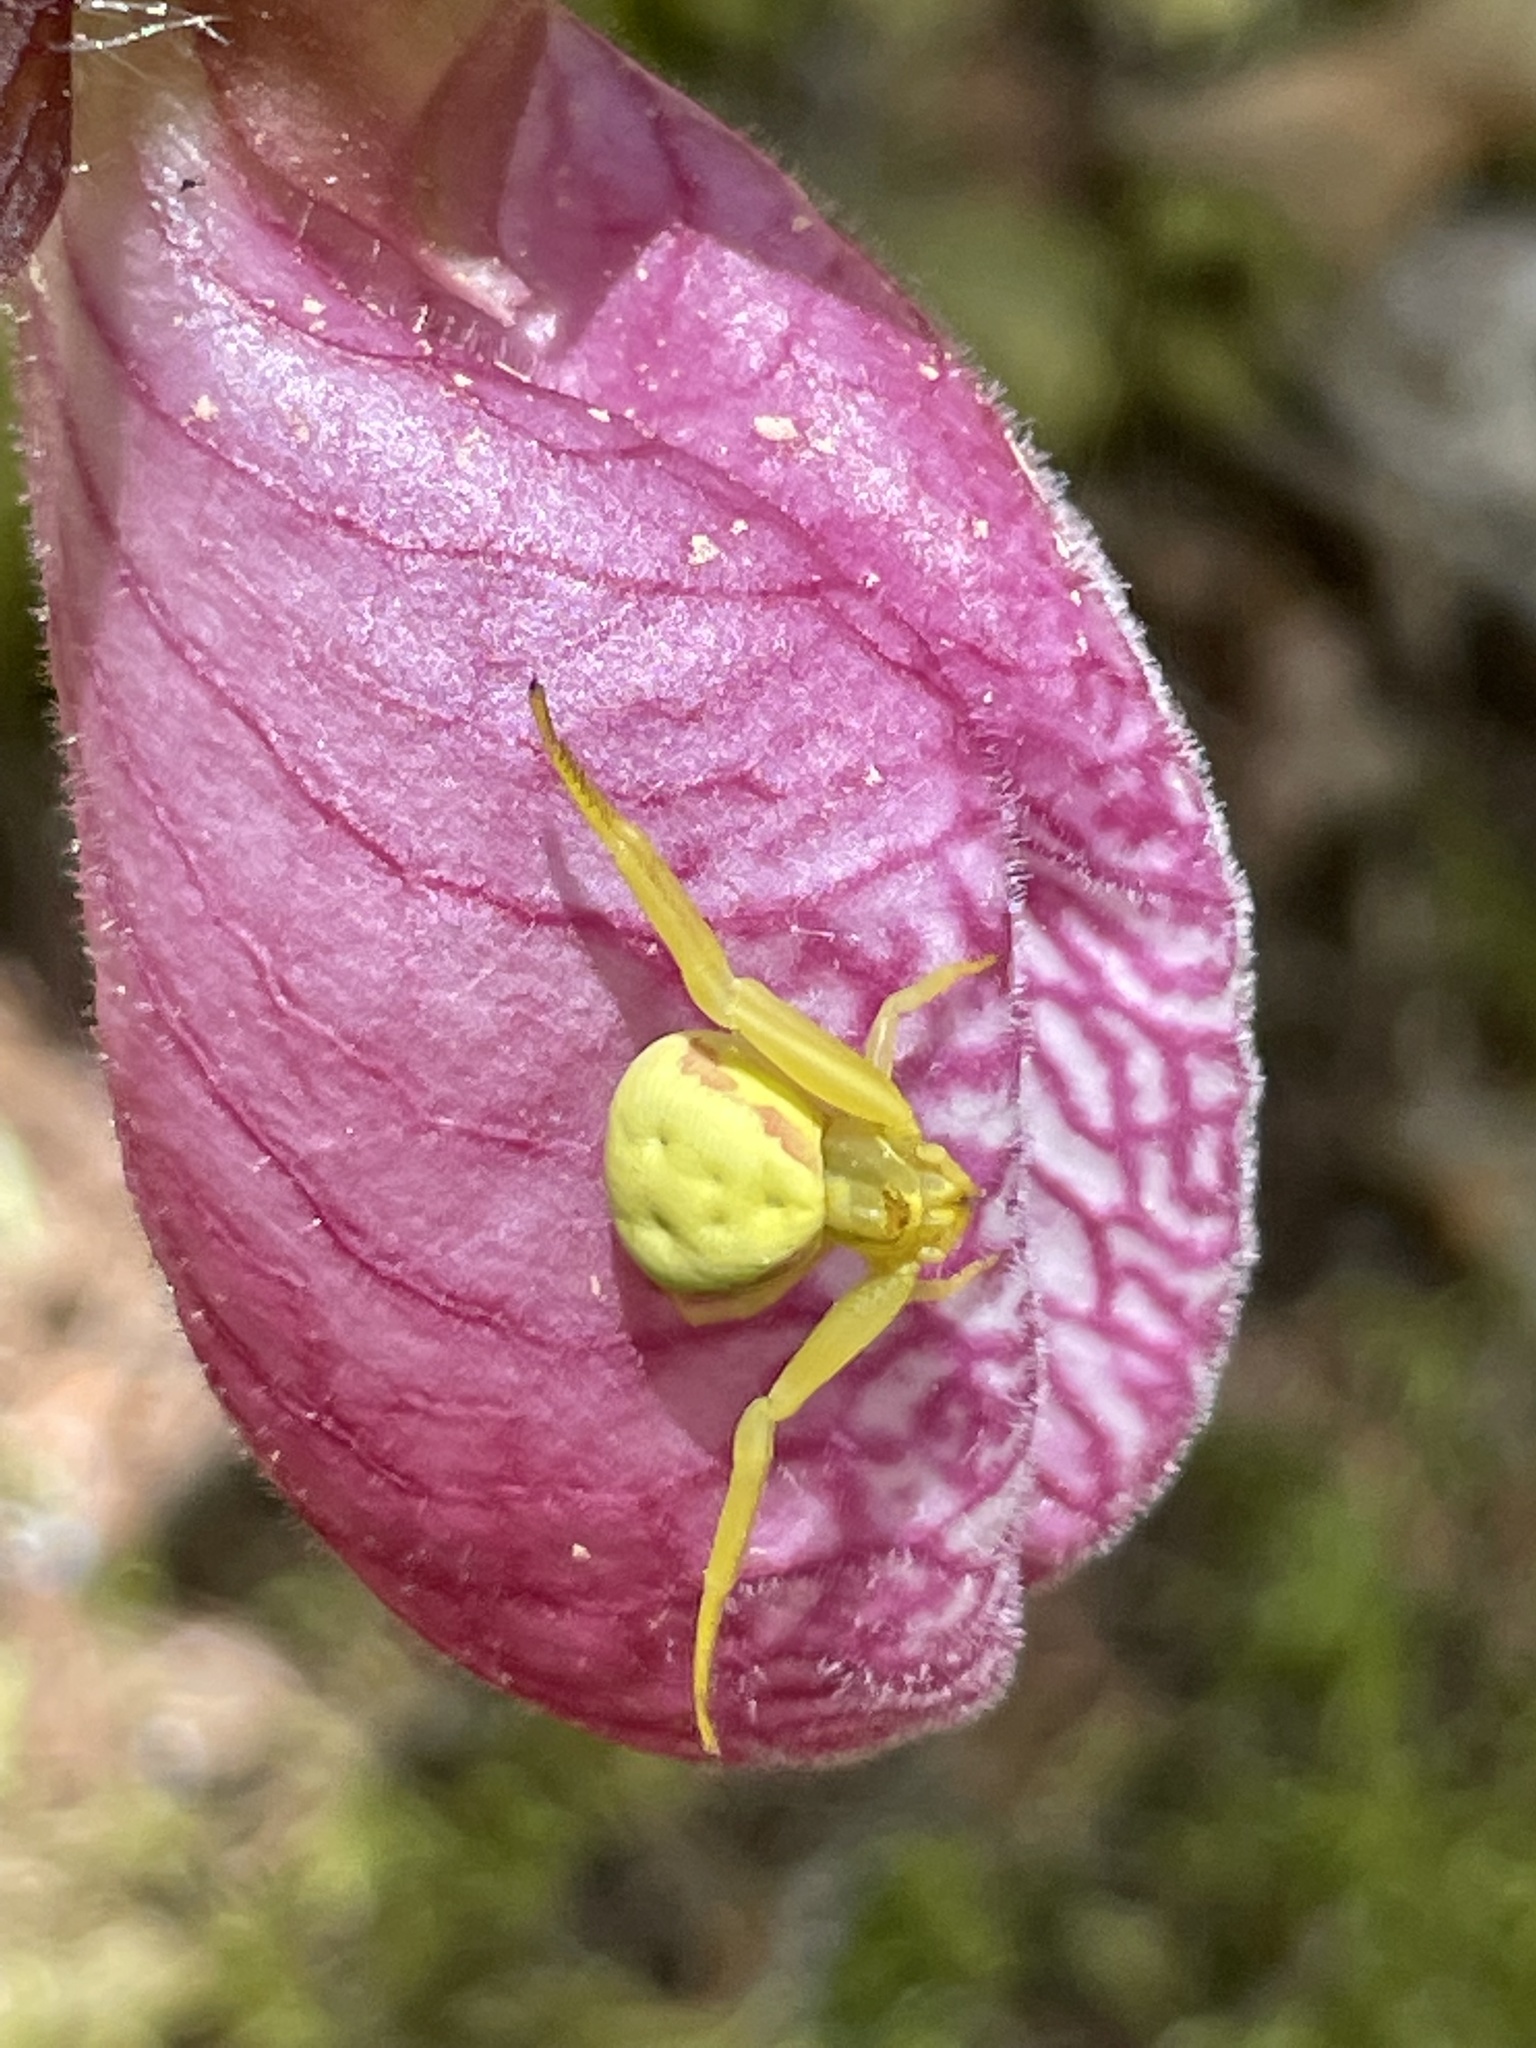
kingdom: Animalia
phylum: Arthropoda
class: Arachnida
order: Araneae
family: Thomisidae
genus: Misumena
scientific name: Misumena vatia
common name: Goldenrod crab spider
